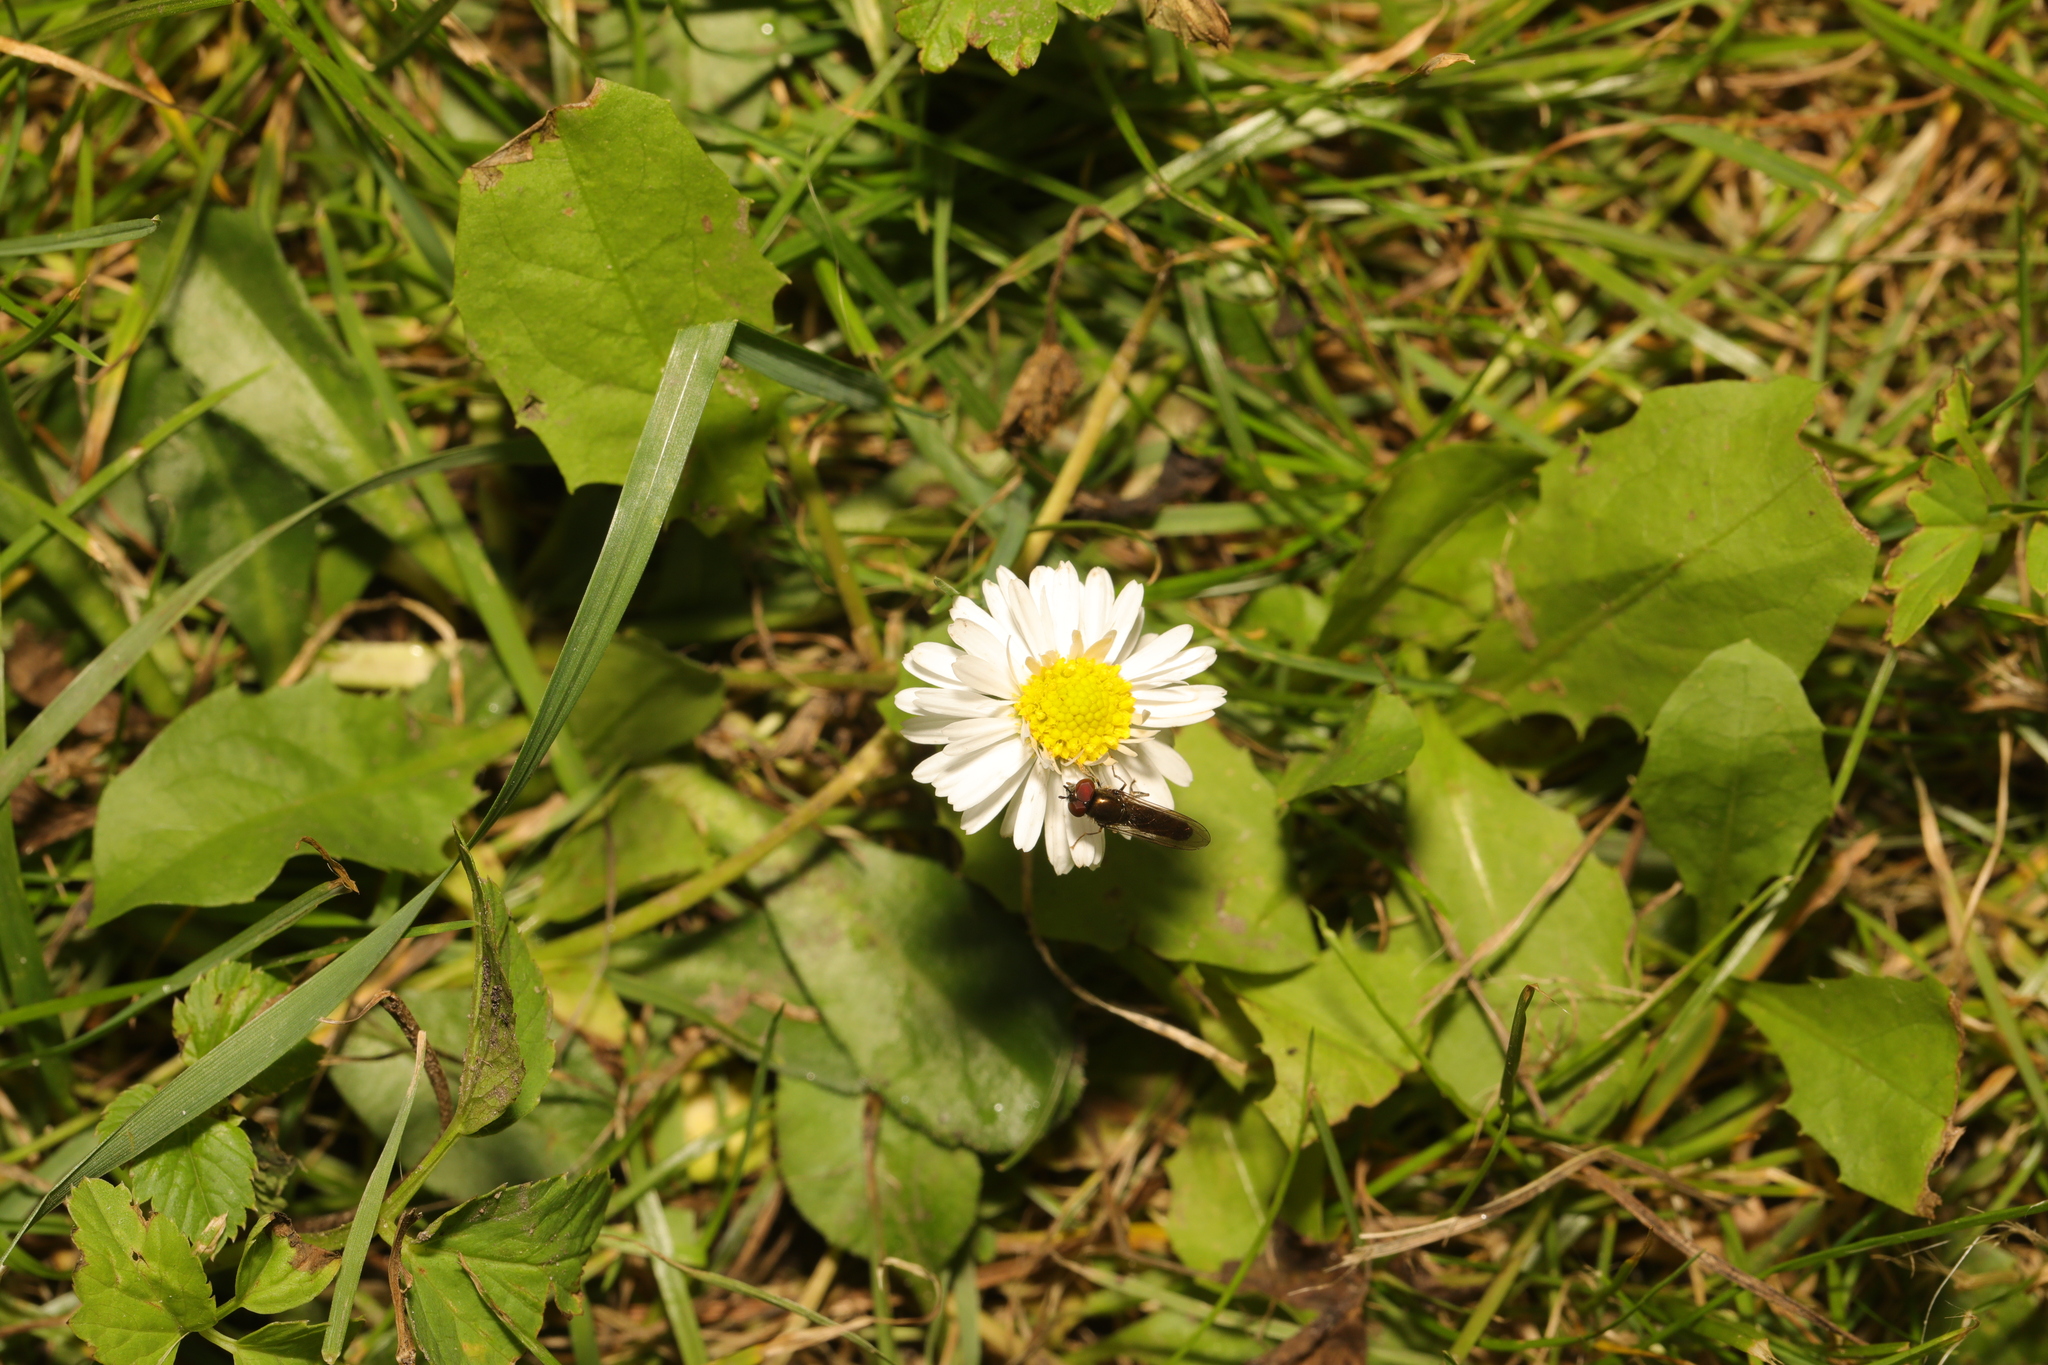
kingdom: Plantae
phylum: Tracheophyta
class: Magnoliopsida
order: Asterales
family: Asteraceae
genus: Bellis
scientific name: Bellis perennis
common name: Lawndaisy
